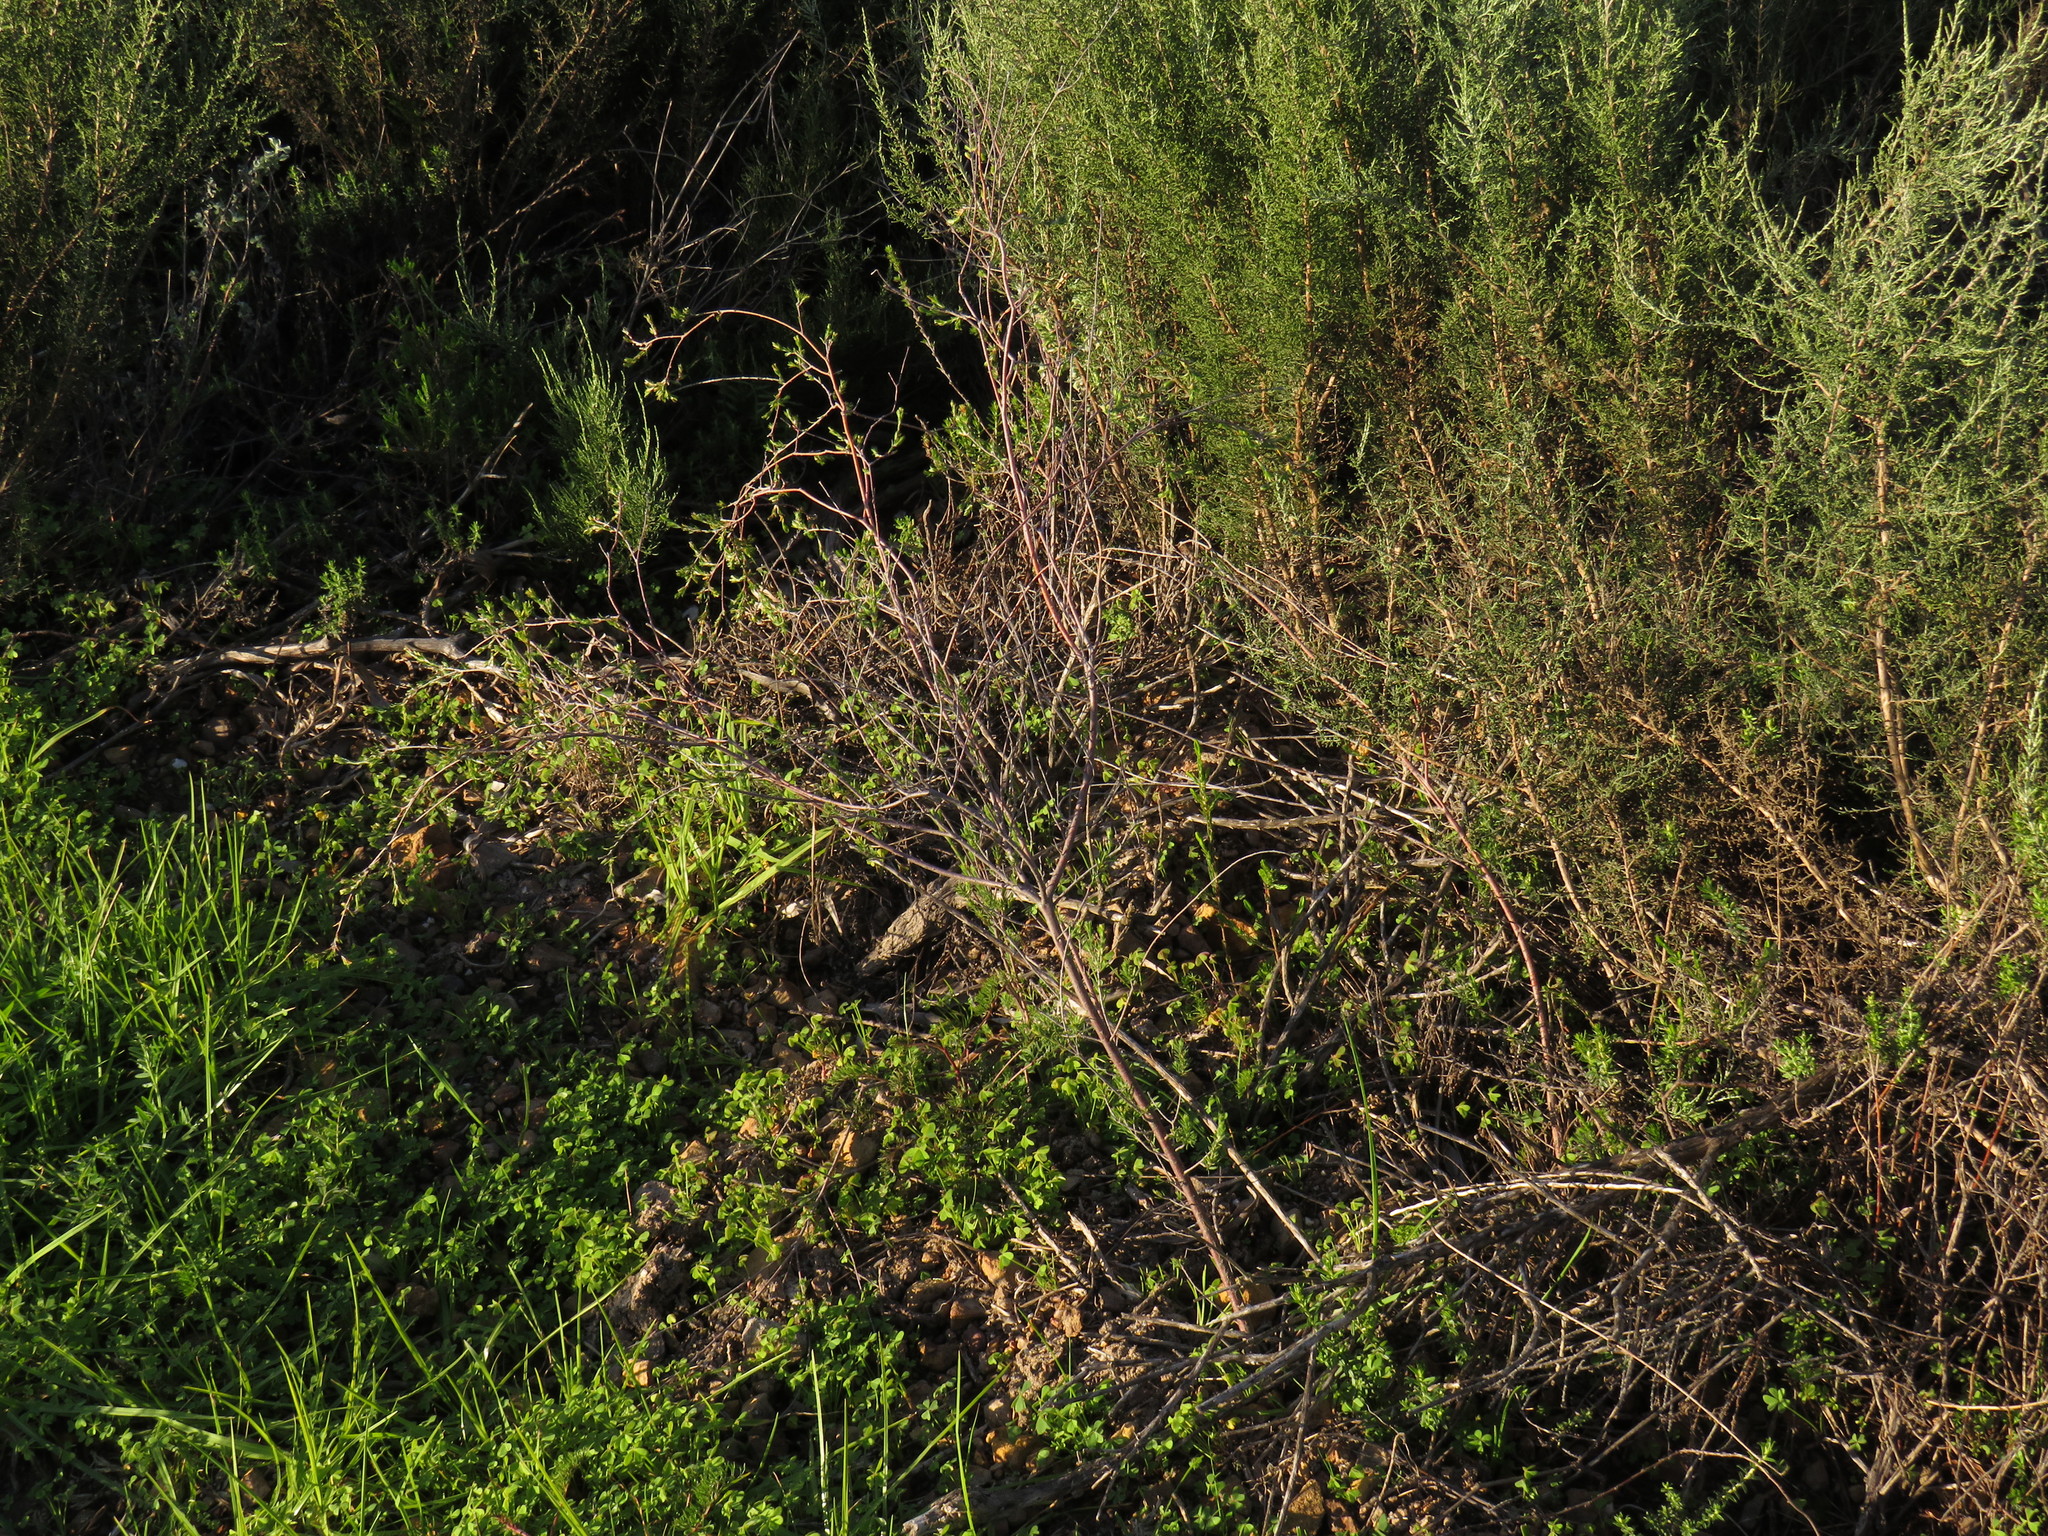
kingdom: Plantae
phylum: Tracheophyta
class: Magnoliopsida
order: Malvales
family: Thymelaeaceae
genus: Gnidia
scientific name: Gnidia laxa
